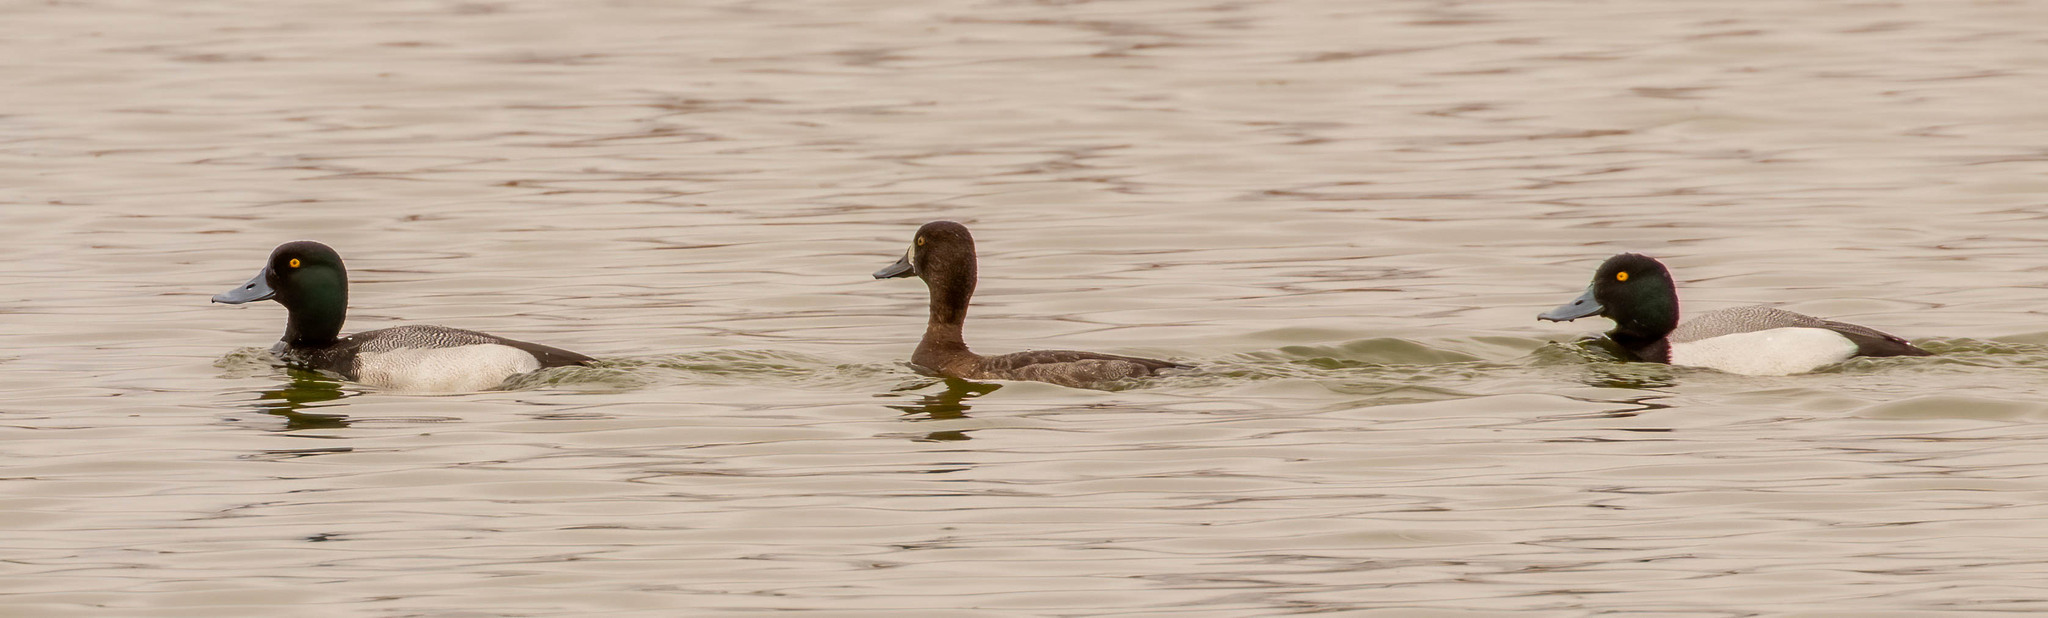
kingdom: Animalia
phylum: Chordata
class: Aves
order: Anseriformes
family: Anatidae
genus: Aythya
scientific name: Aythya marila
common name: Greater scaup
